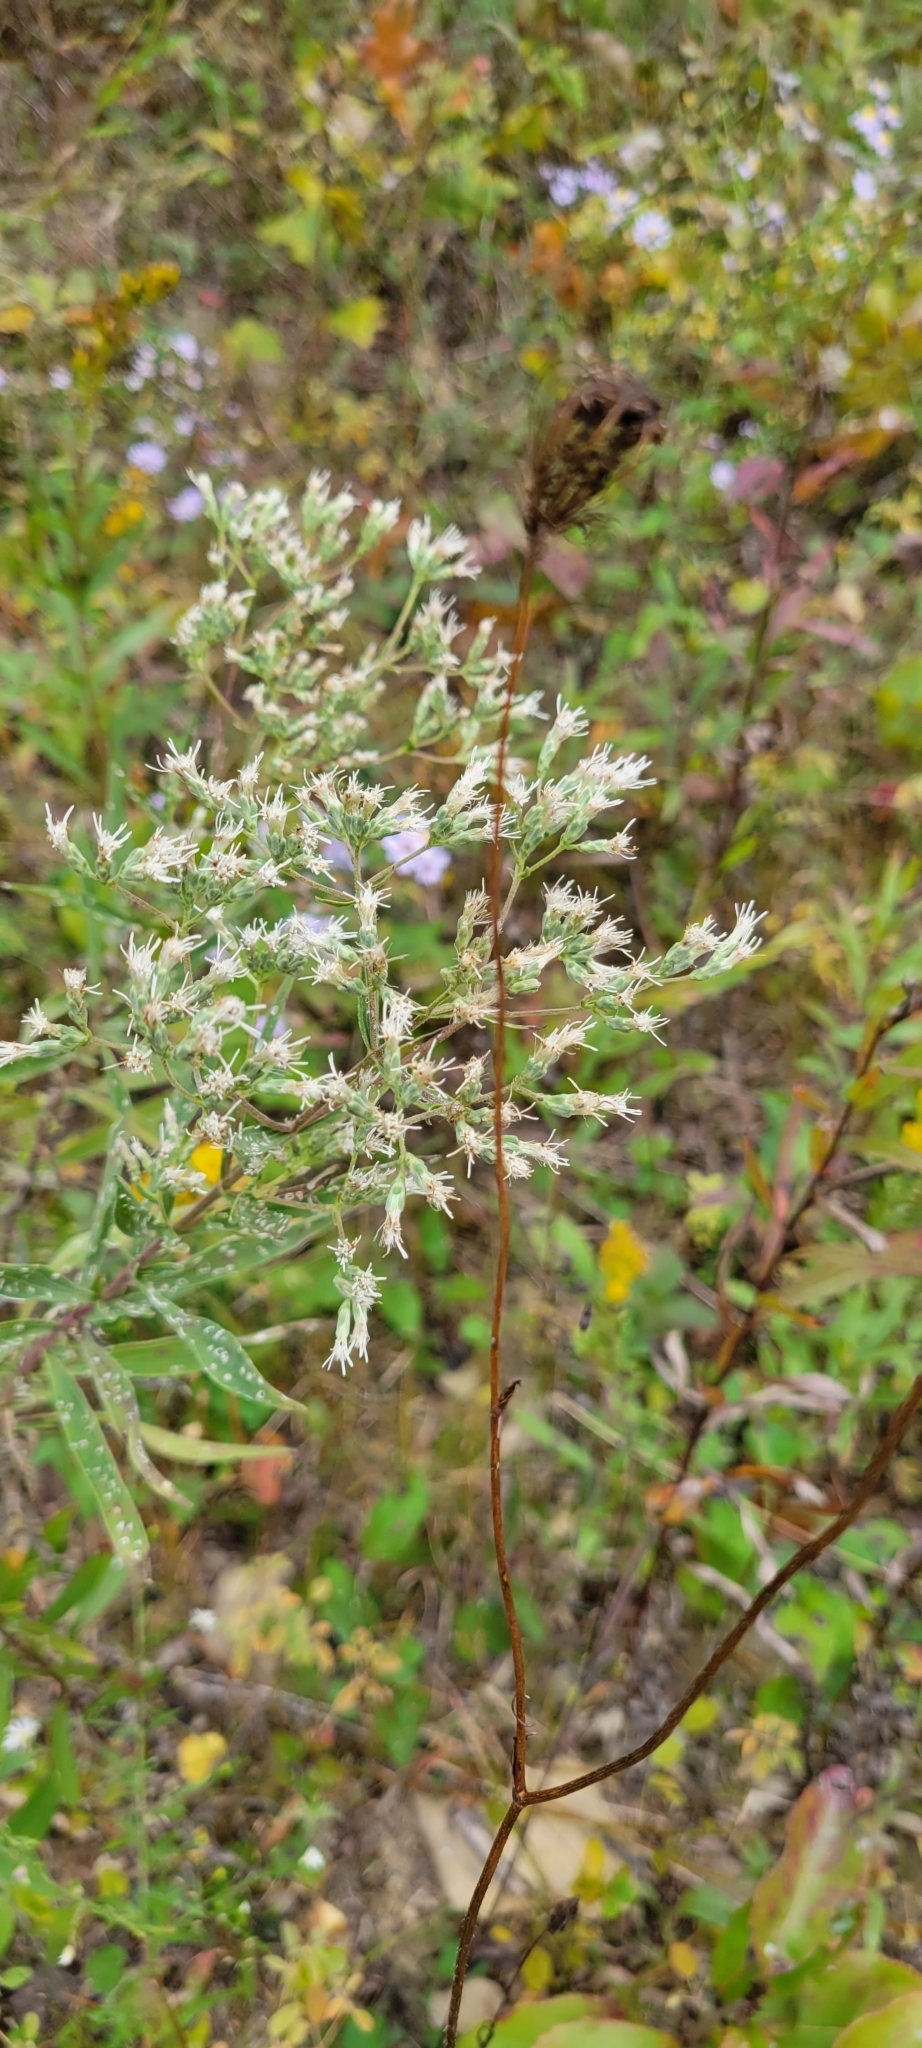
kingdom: Plantae
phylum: Tracheophyta
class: Magnoliopsida
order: Asterales
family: Asteraceae
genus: Eupatorium
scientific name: Eupatorium altissimum
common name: Tall thoroughwort
